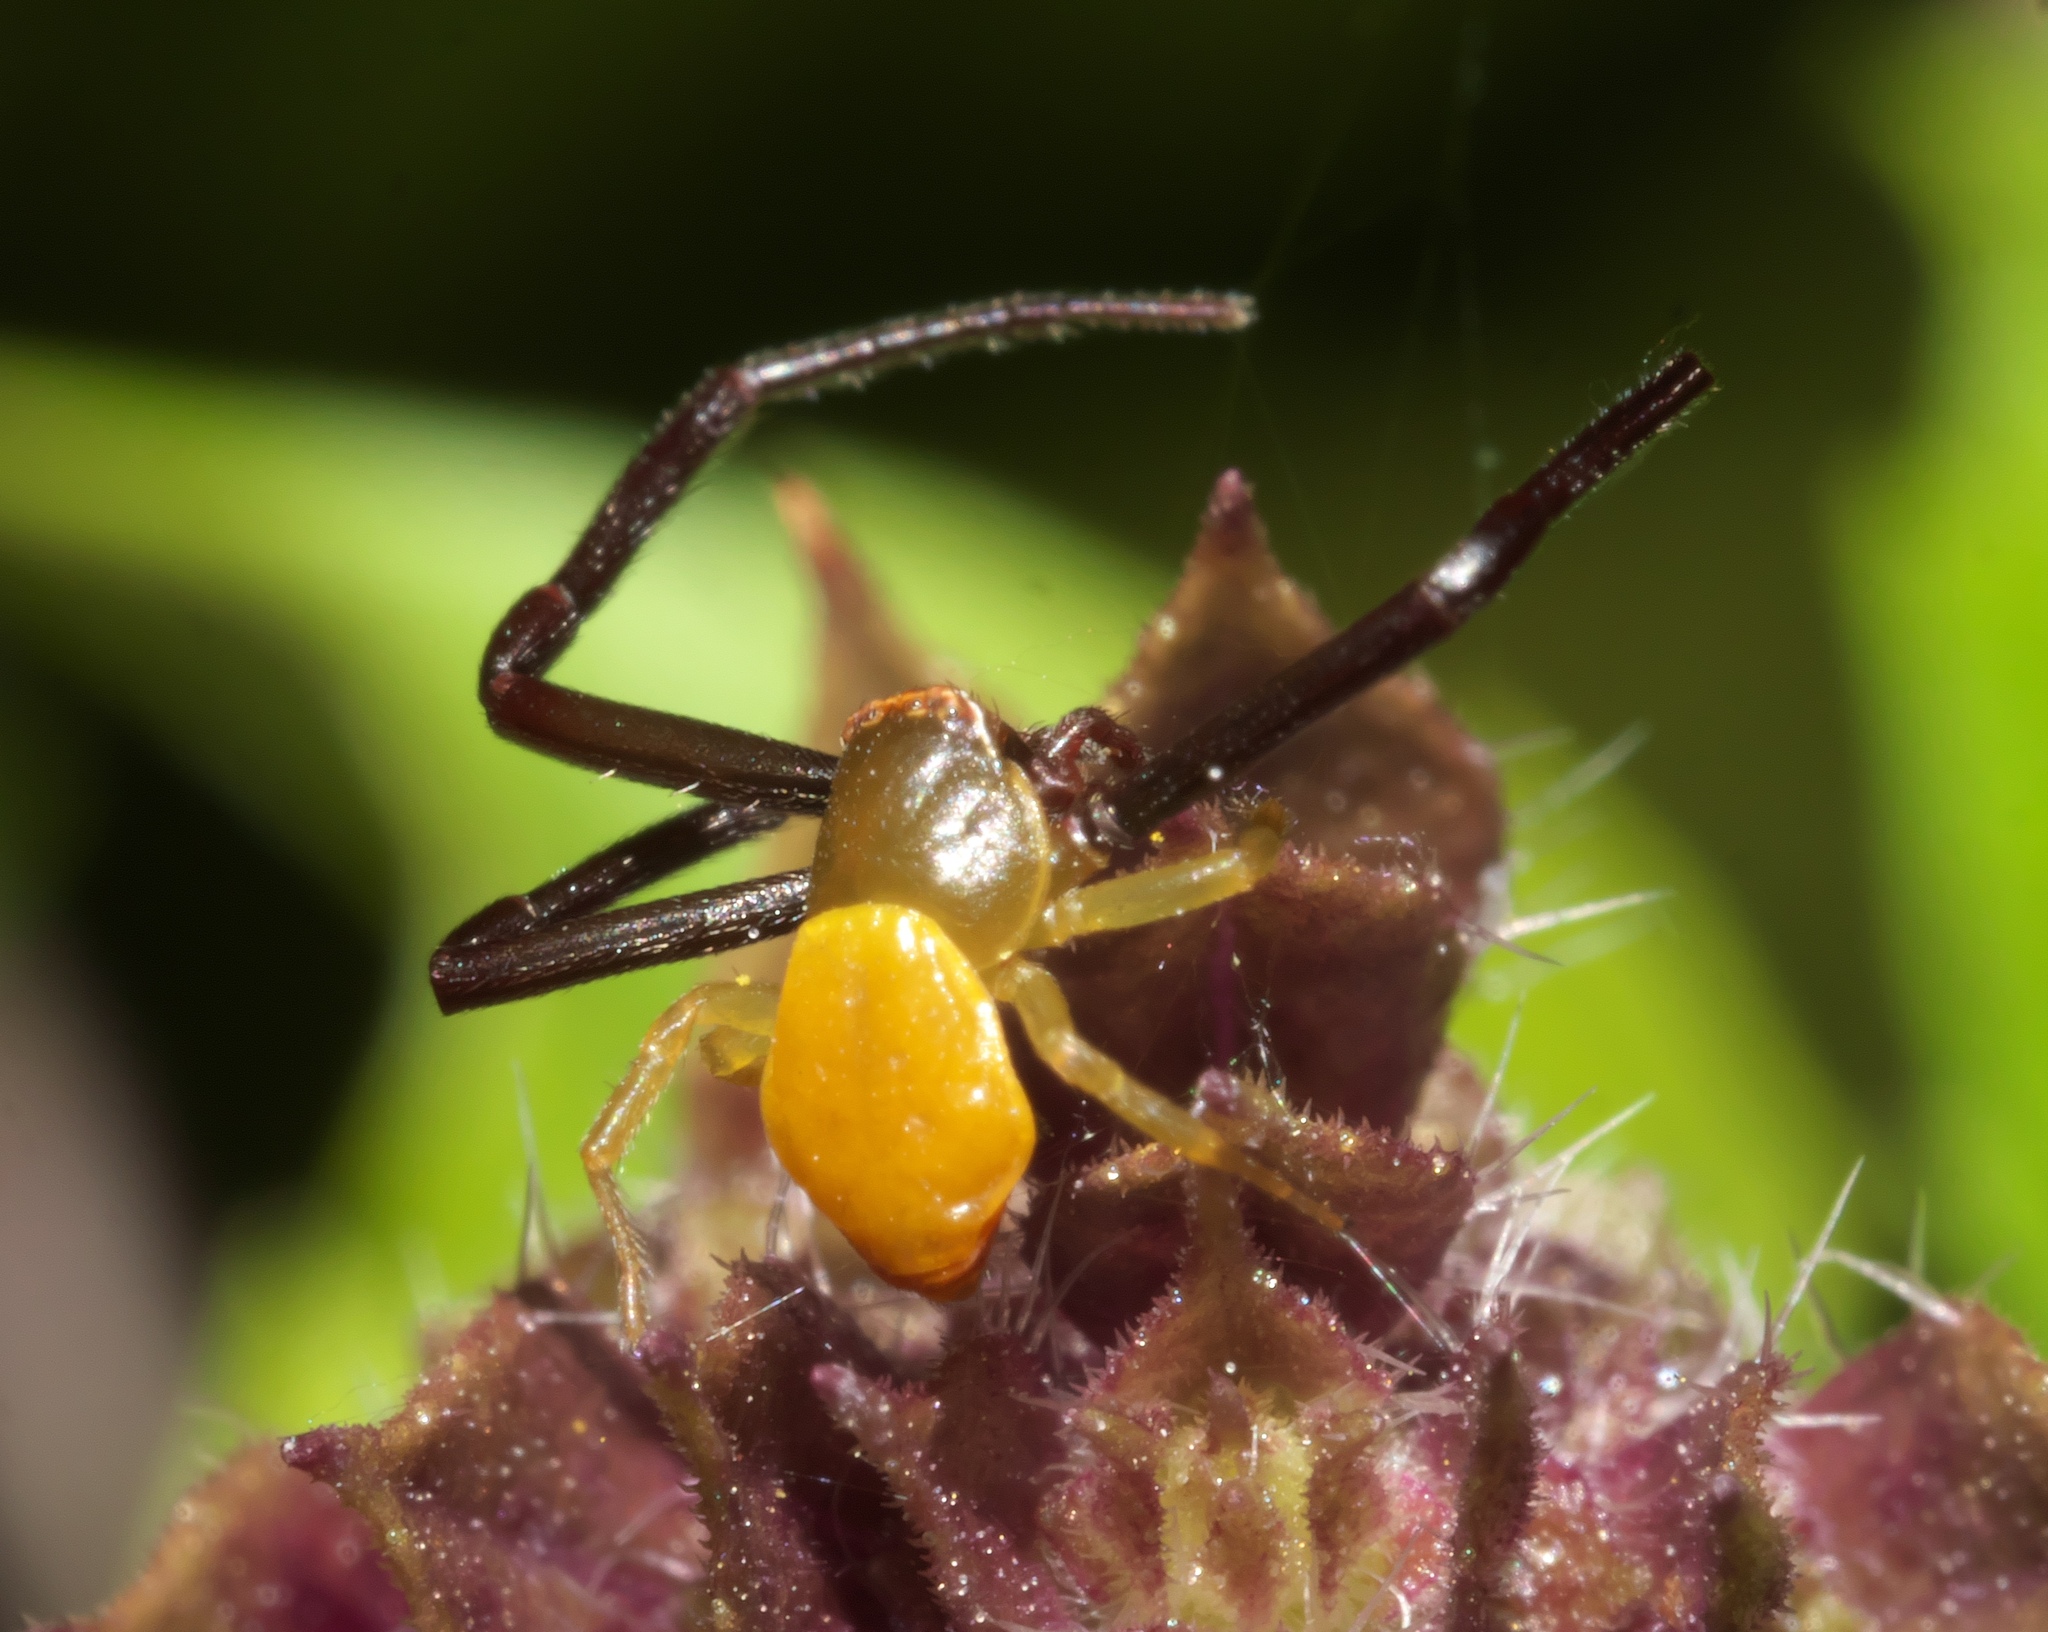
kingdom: Animalia
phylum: Arthropoda
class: Arachnida
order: Araneae
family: Thomisidae
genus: Misumenoides
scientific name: Misumenoides formosipes
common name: White-banded crab spider
